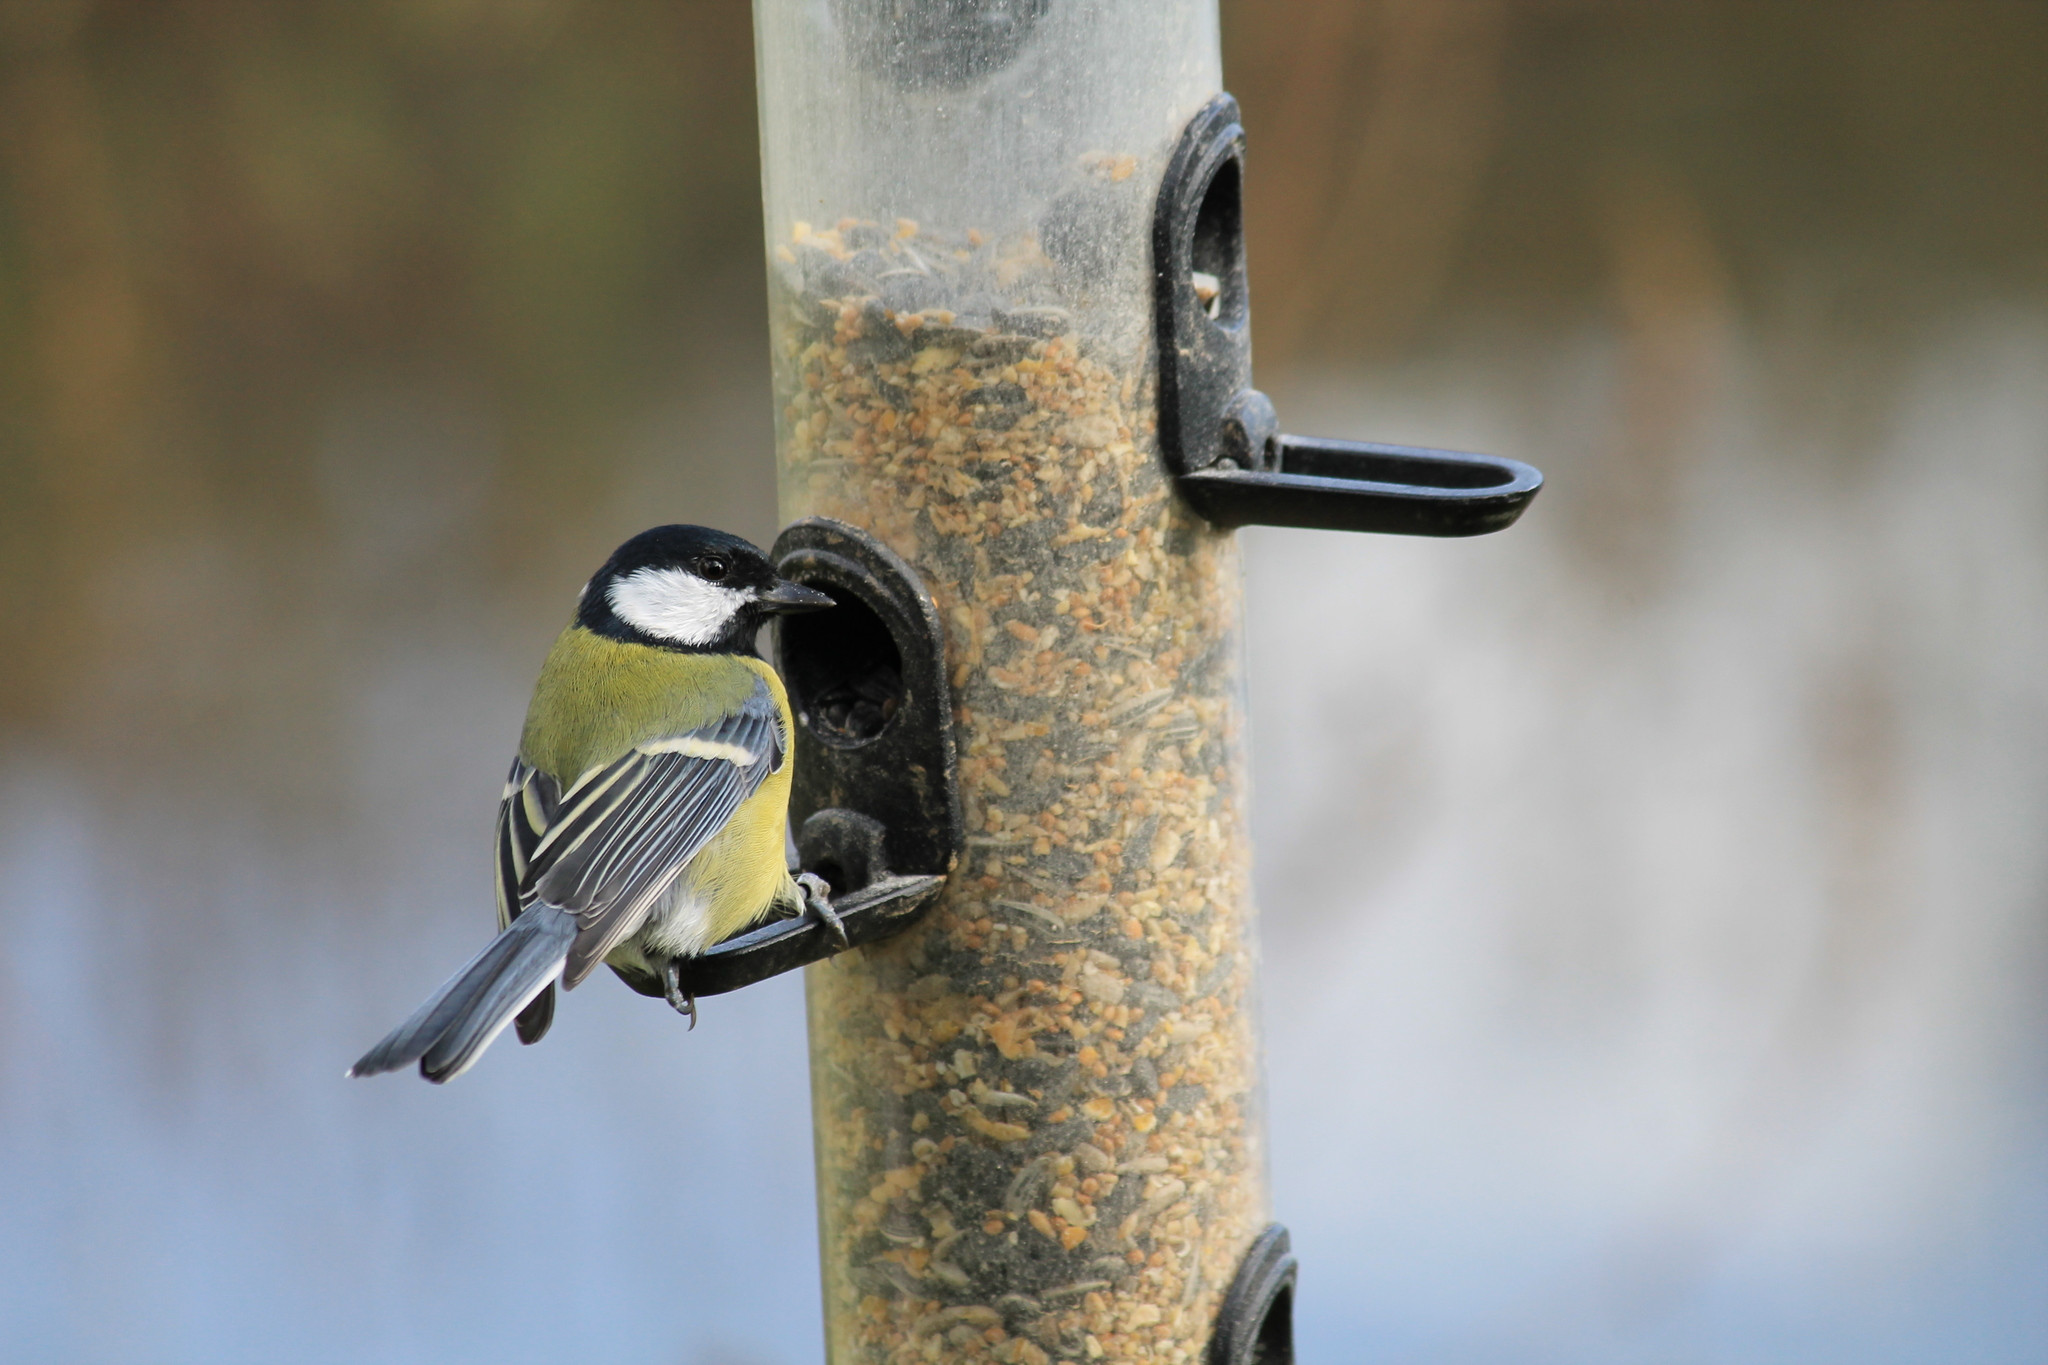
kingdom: Animalia
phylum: Chordata
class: Aves
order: Passeriformes
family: Paridae
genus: Parus
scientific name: Parus major
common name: Great tit
